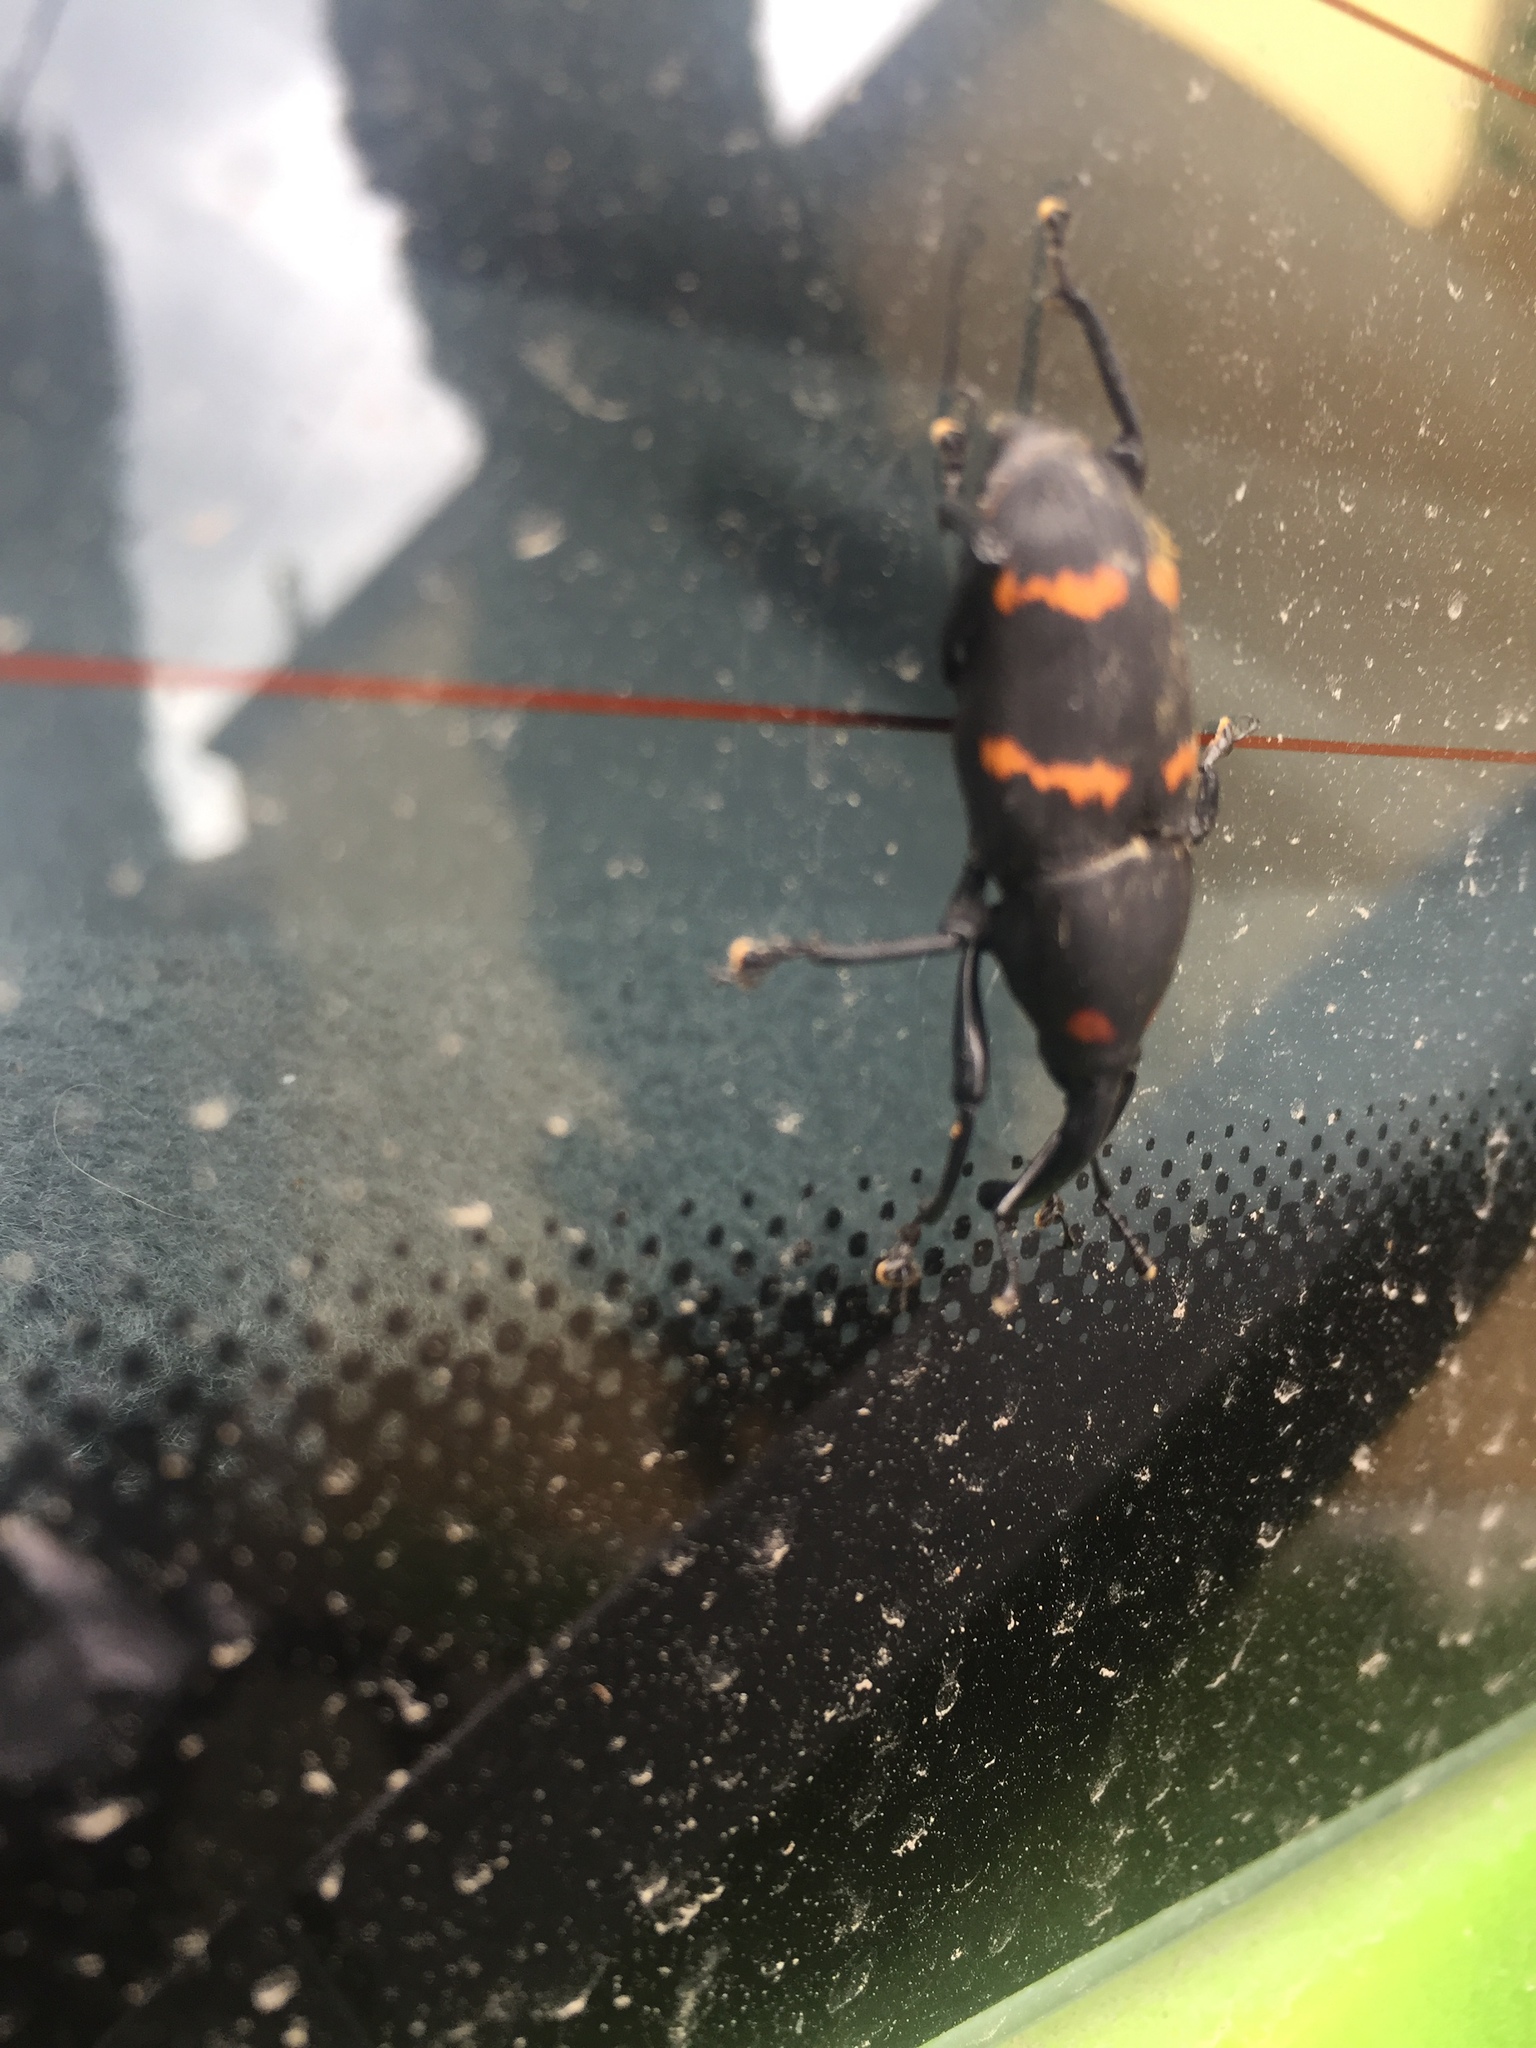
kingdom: Animalia
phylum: Arthropoda
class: Insecta
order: Coleoptera
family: Dryophthoridae
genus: Cactophagus
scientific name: Cactophagus spinolae
